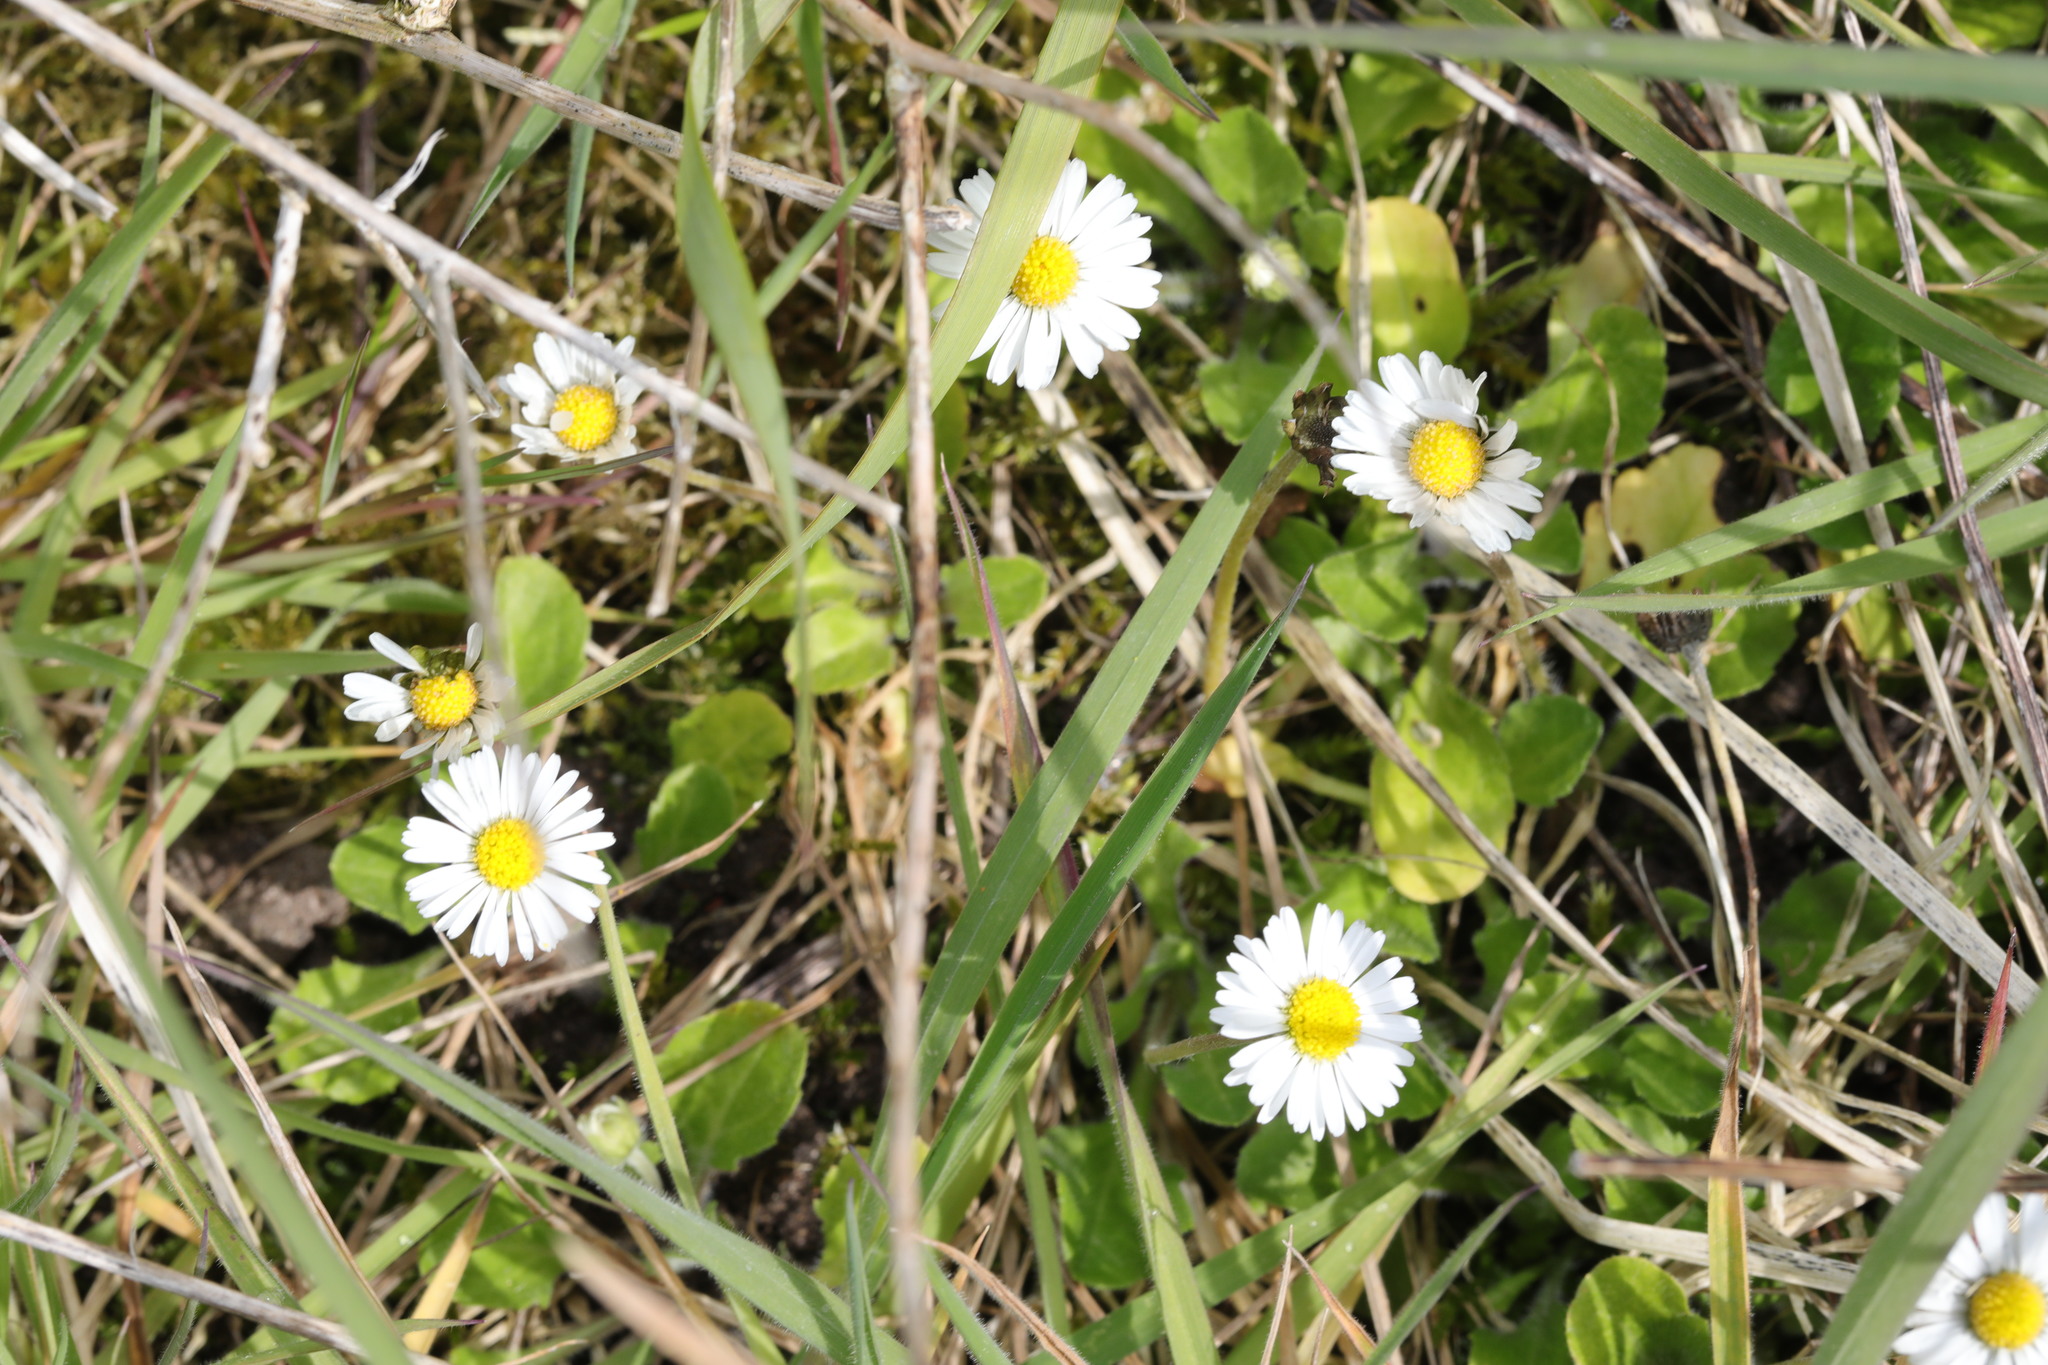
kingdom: Plantae
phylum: Tracheophyta
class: Magnoliopsida
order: Asterales
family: Asteraceae
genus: Bellis
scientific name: Bellis perennis
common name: Lawndaisy
